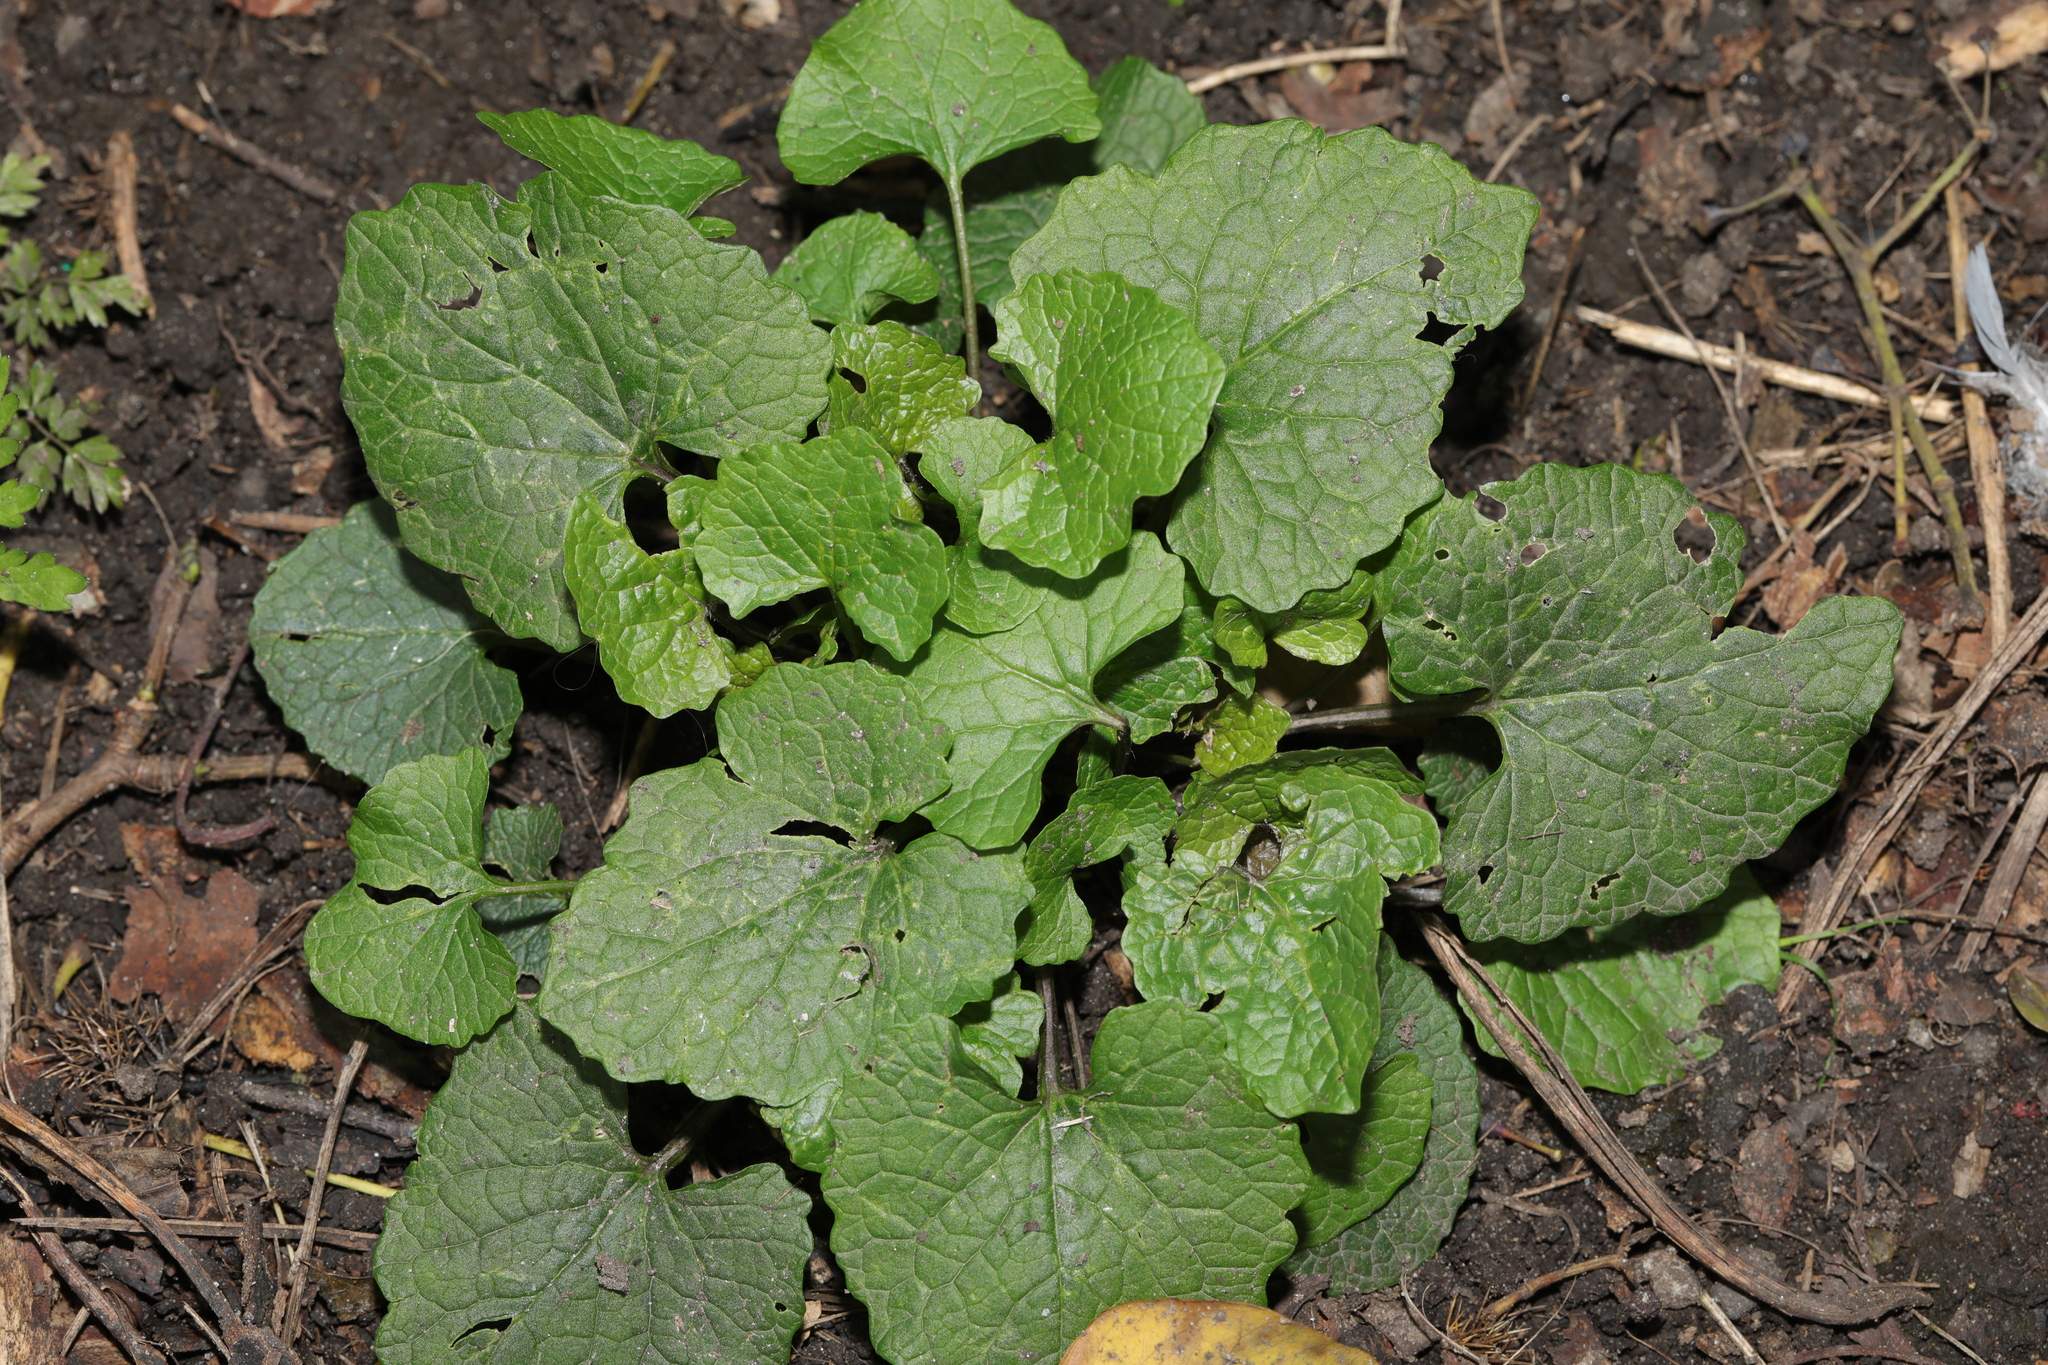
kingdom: Plantae
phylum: Tracheophyta
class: Magnoliopsida
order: Brassicales
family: Brassicaceae
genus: Alliaria
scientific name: Alliaria petiolata
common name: Garlic mustard
